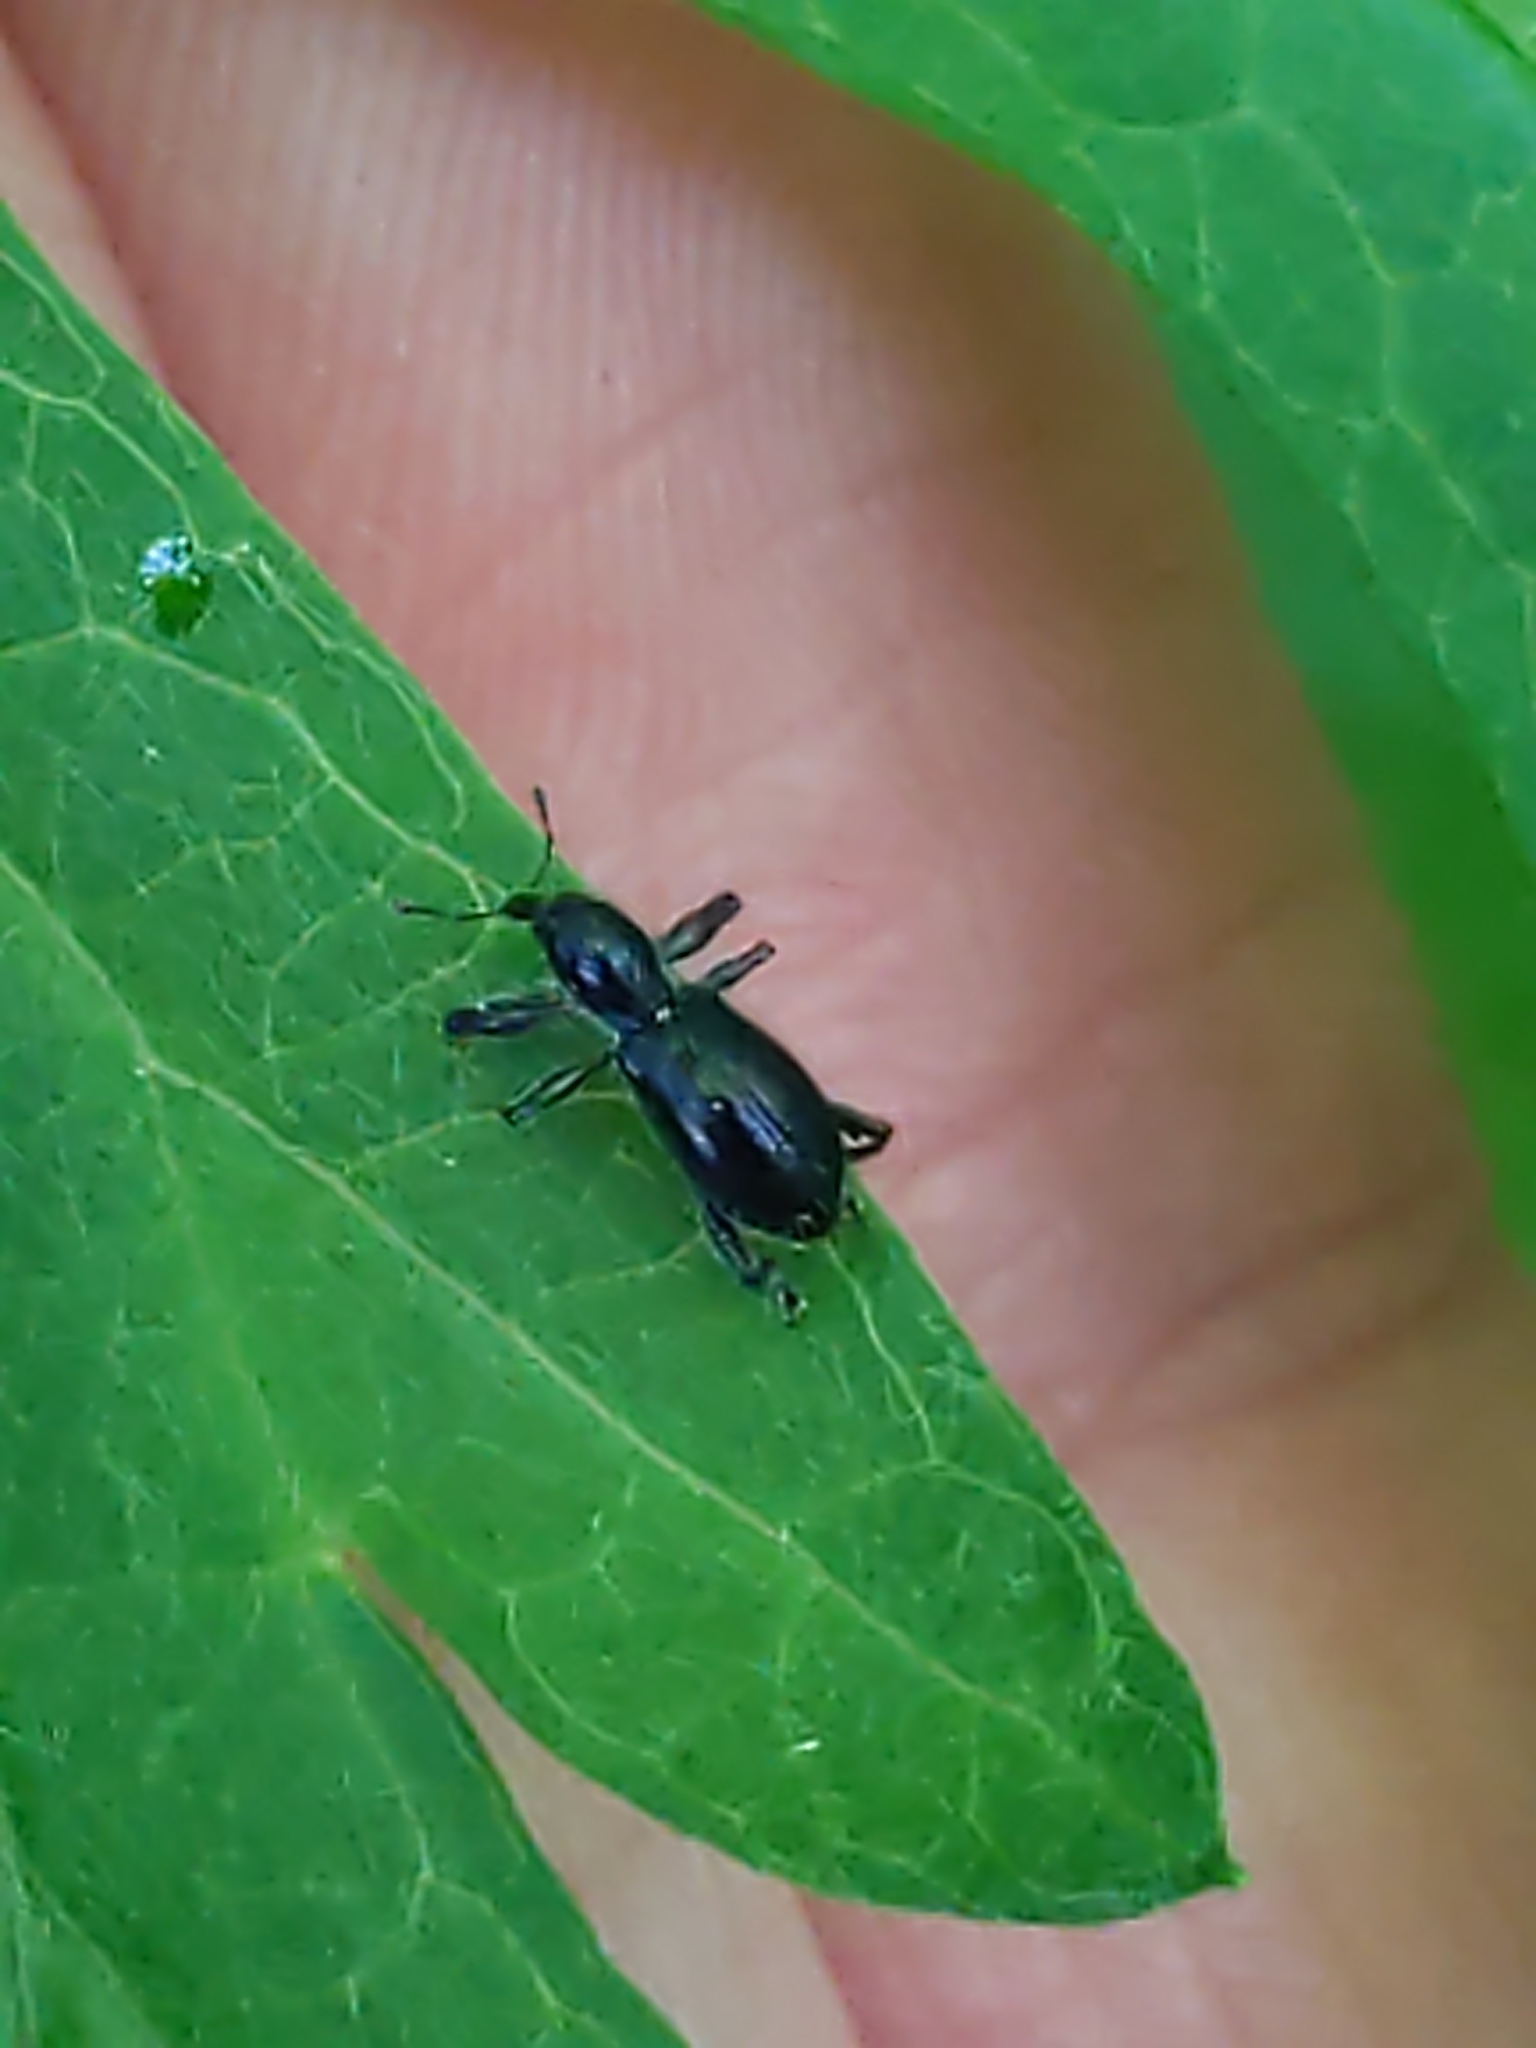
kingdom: Animalia
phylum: Arthropoda
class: Insecta
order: Coleoptera
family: Curculionidae
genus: Myrmex
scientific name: Myrmex myrmex
